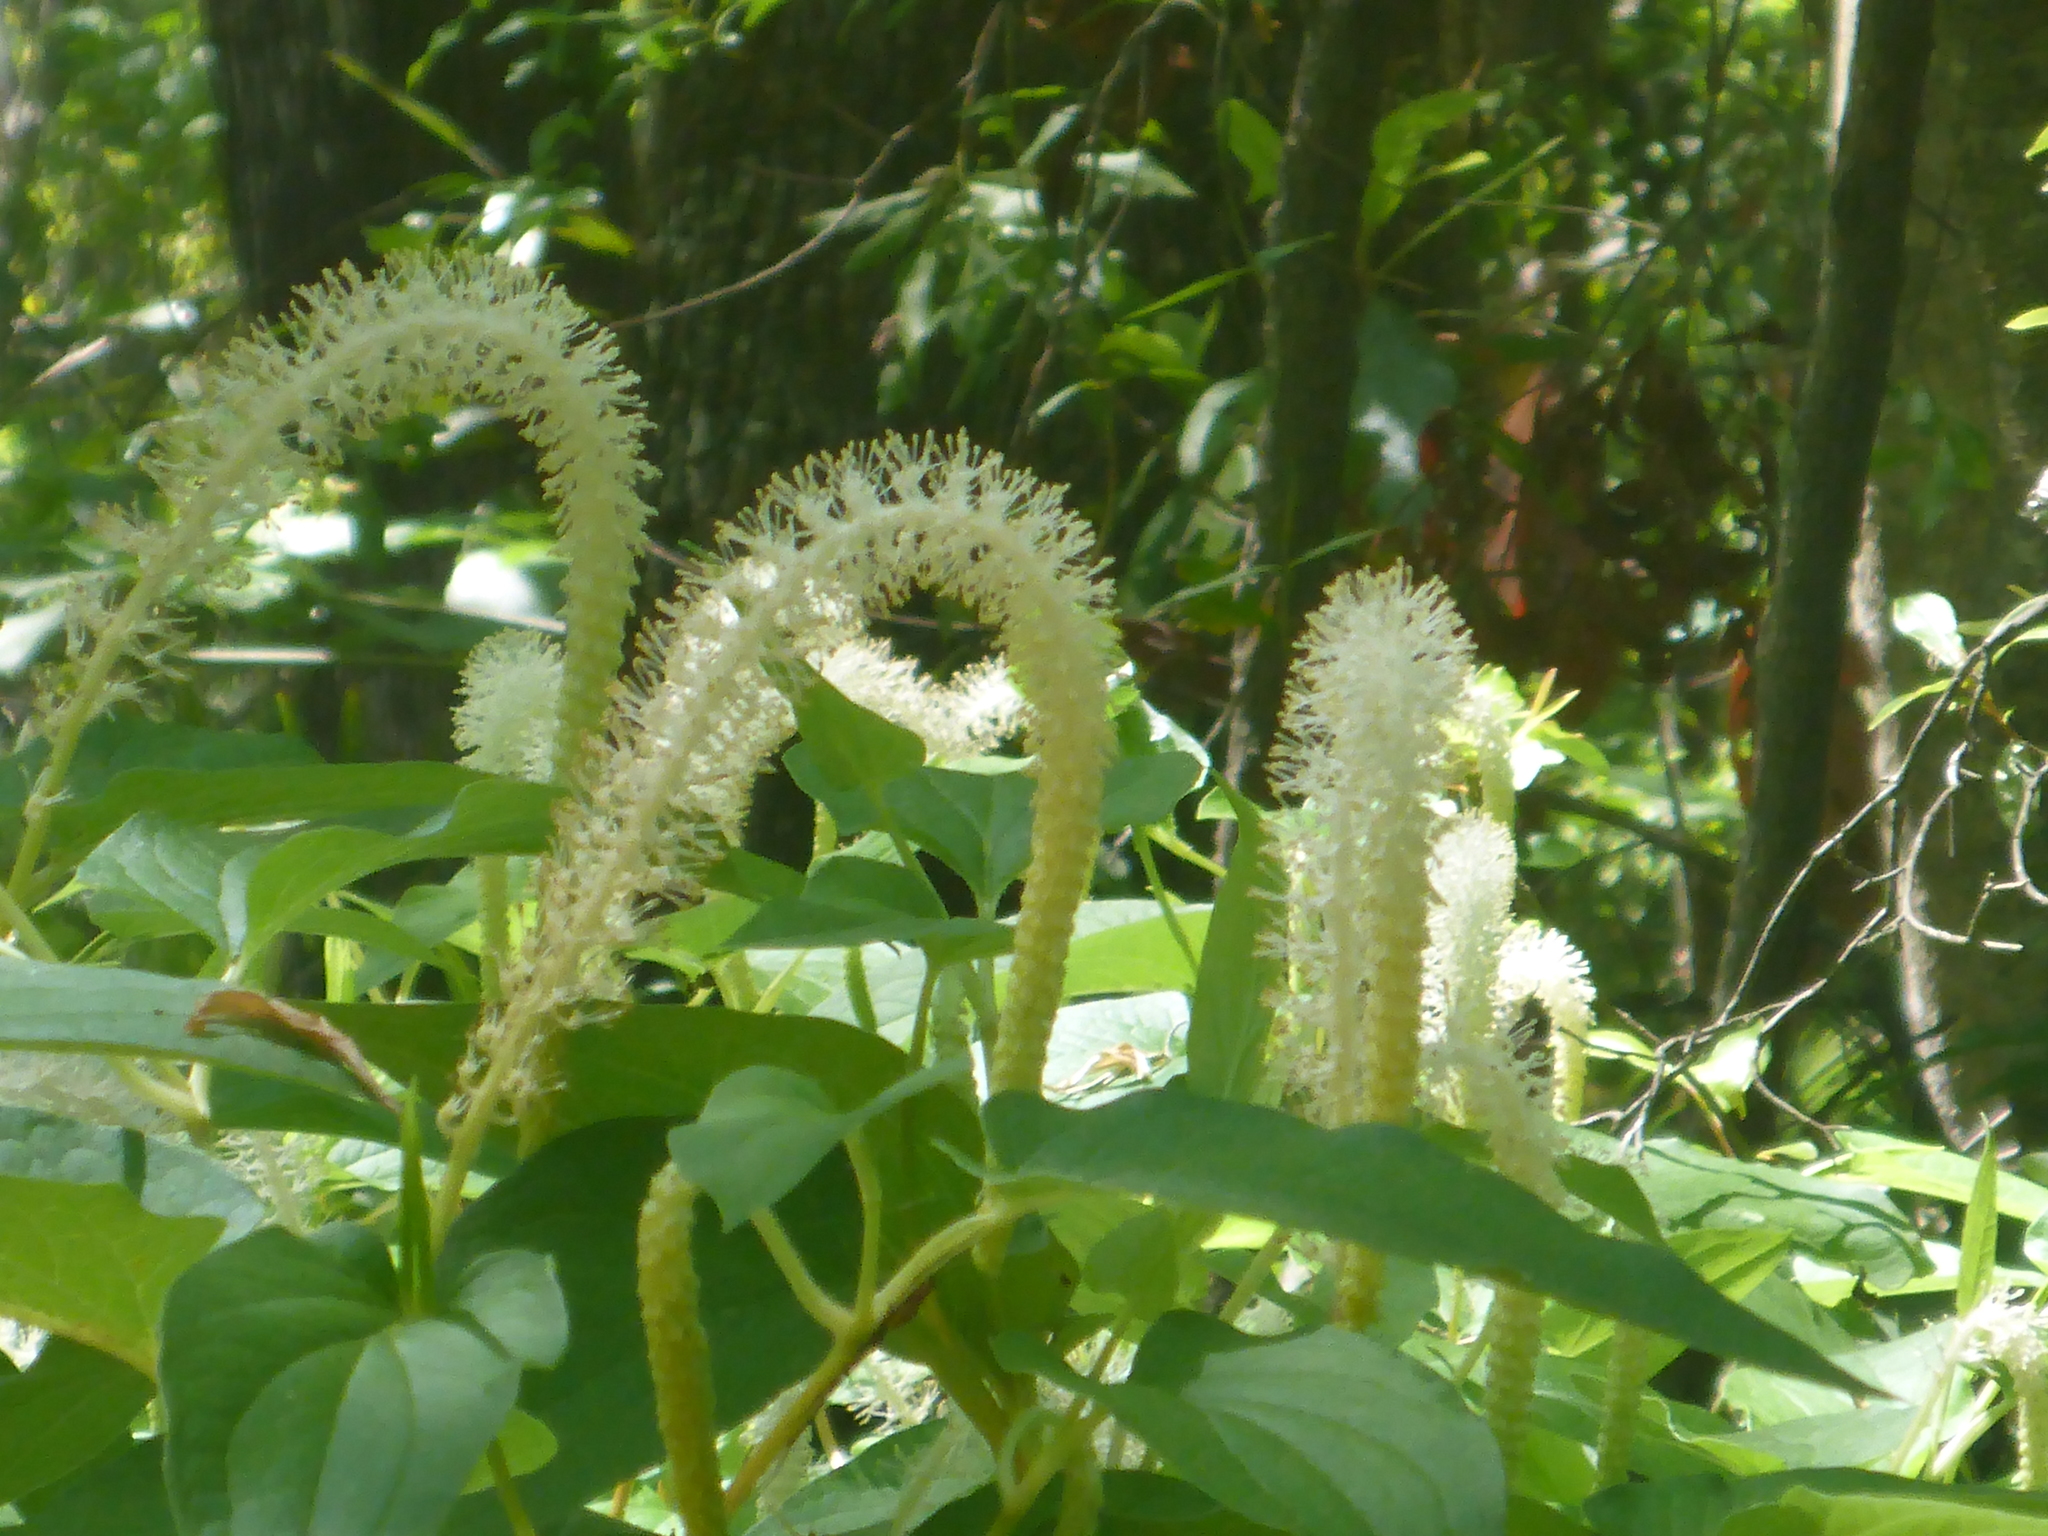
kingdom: Plantae
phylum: Tracheophyta
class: Magnoliopsida
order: Piperales
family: Saururaceae
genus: Saururus
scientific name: Saururus cernuus
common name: Lizard's-tail
